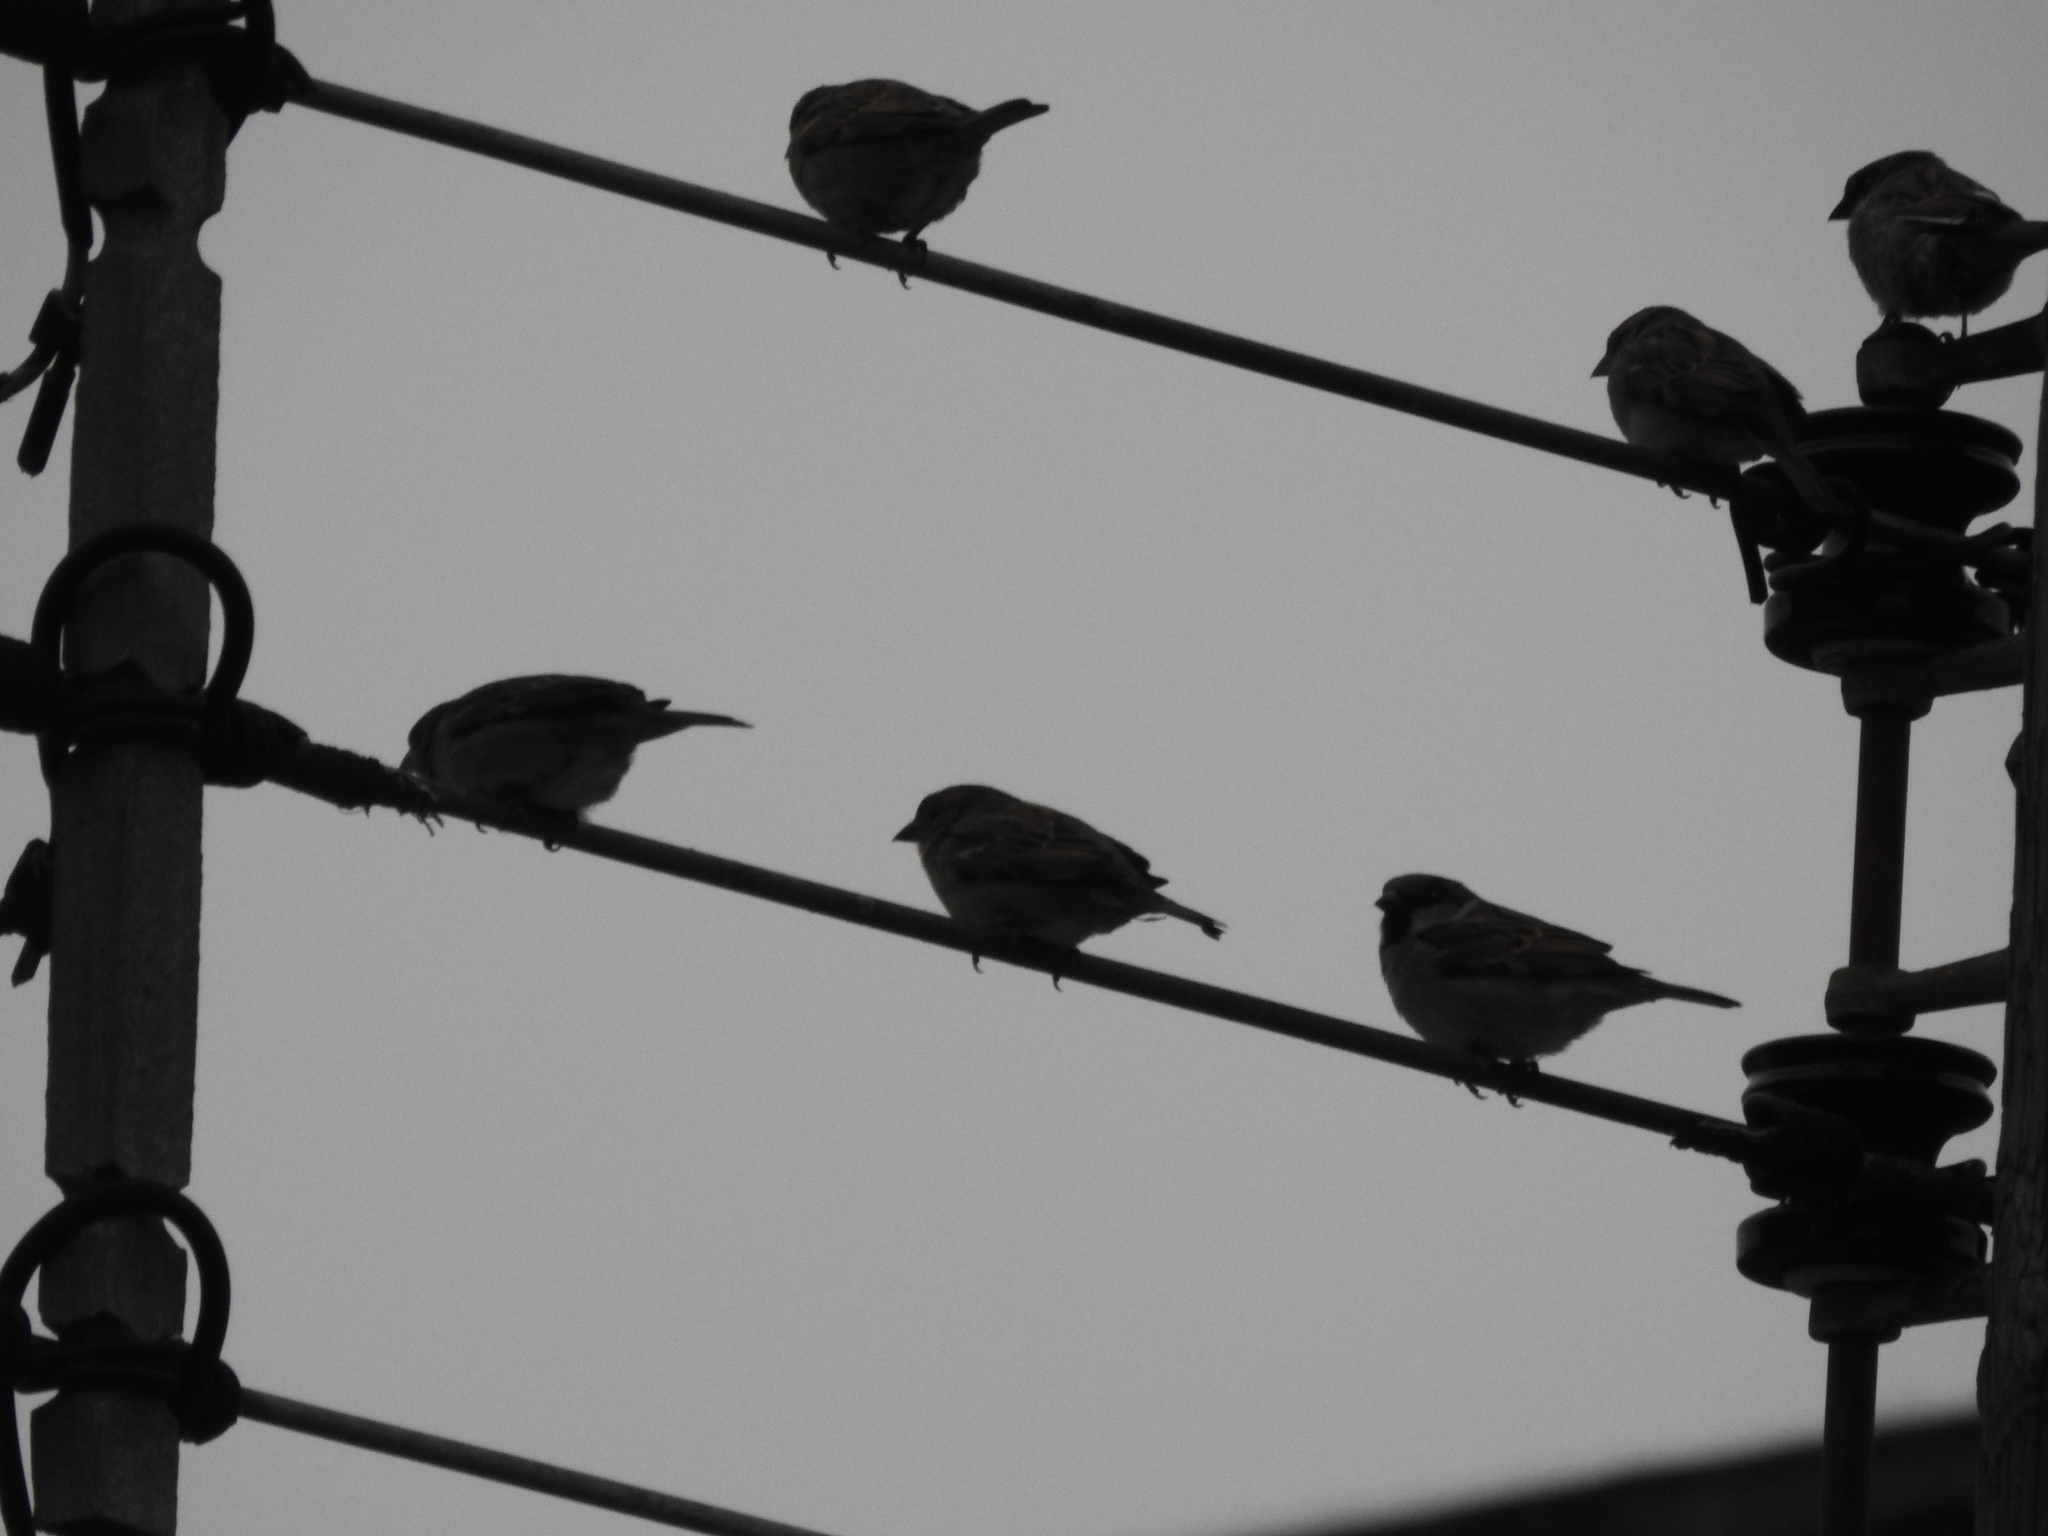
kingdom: Animalia
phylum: Chordata
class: Aves
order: Passeriformes
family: Passeridae
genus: Passer
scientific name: Passer domesticus
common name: House sparrow
